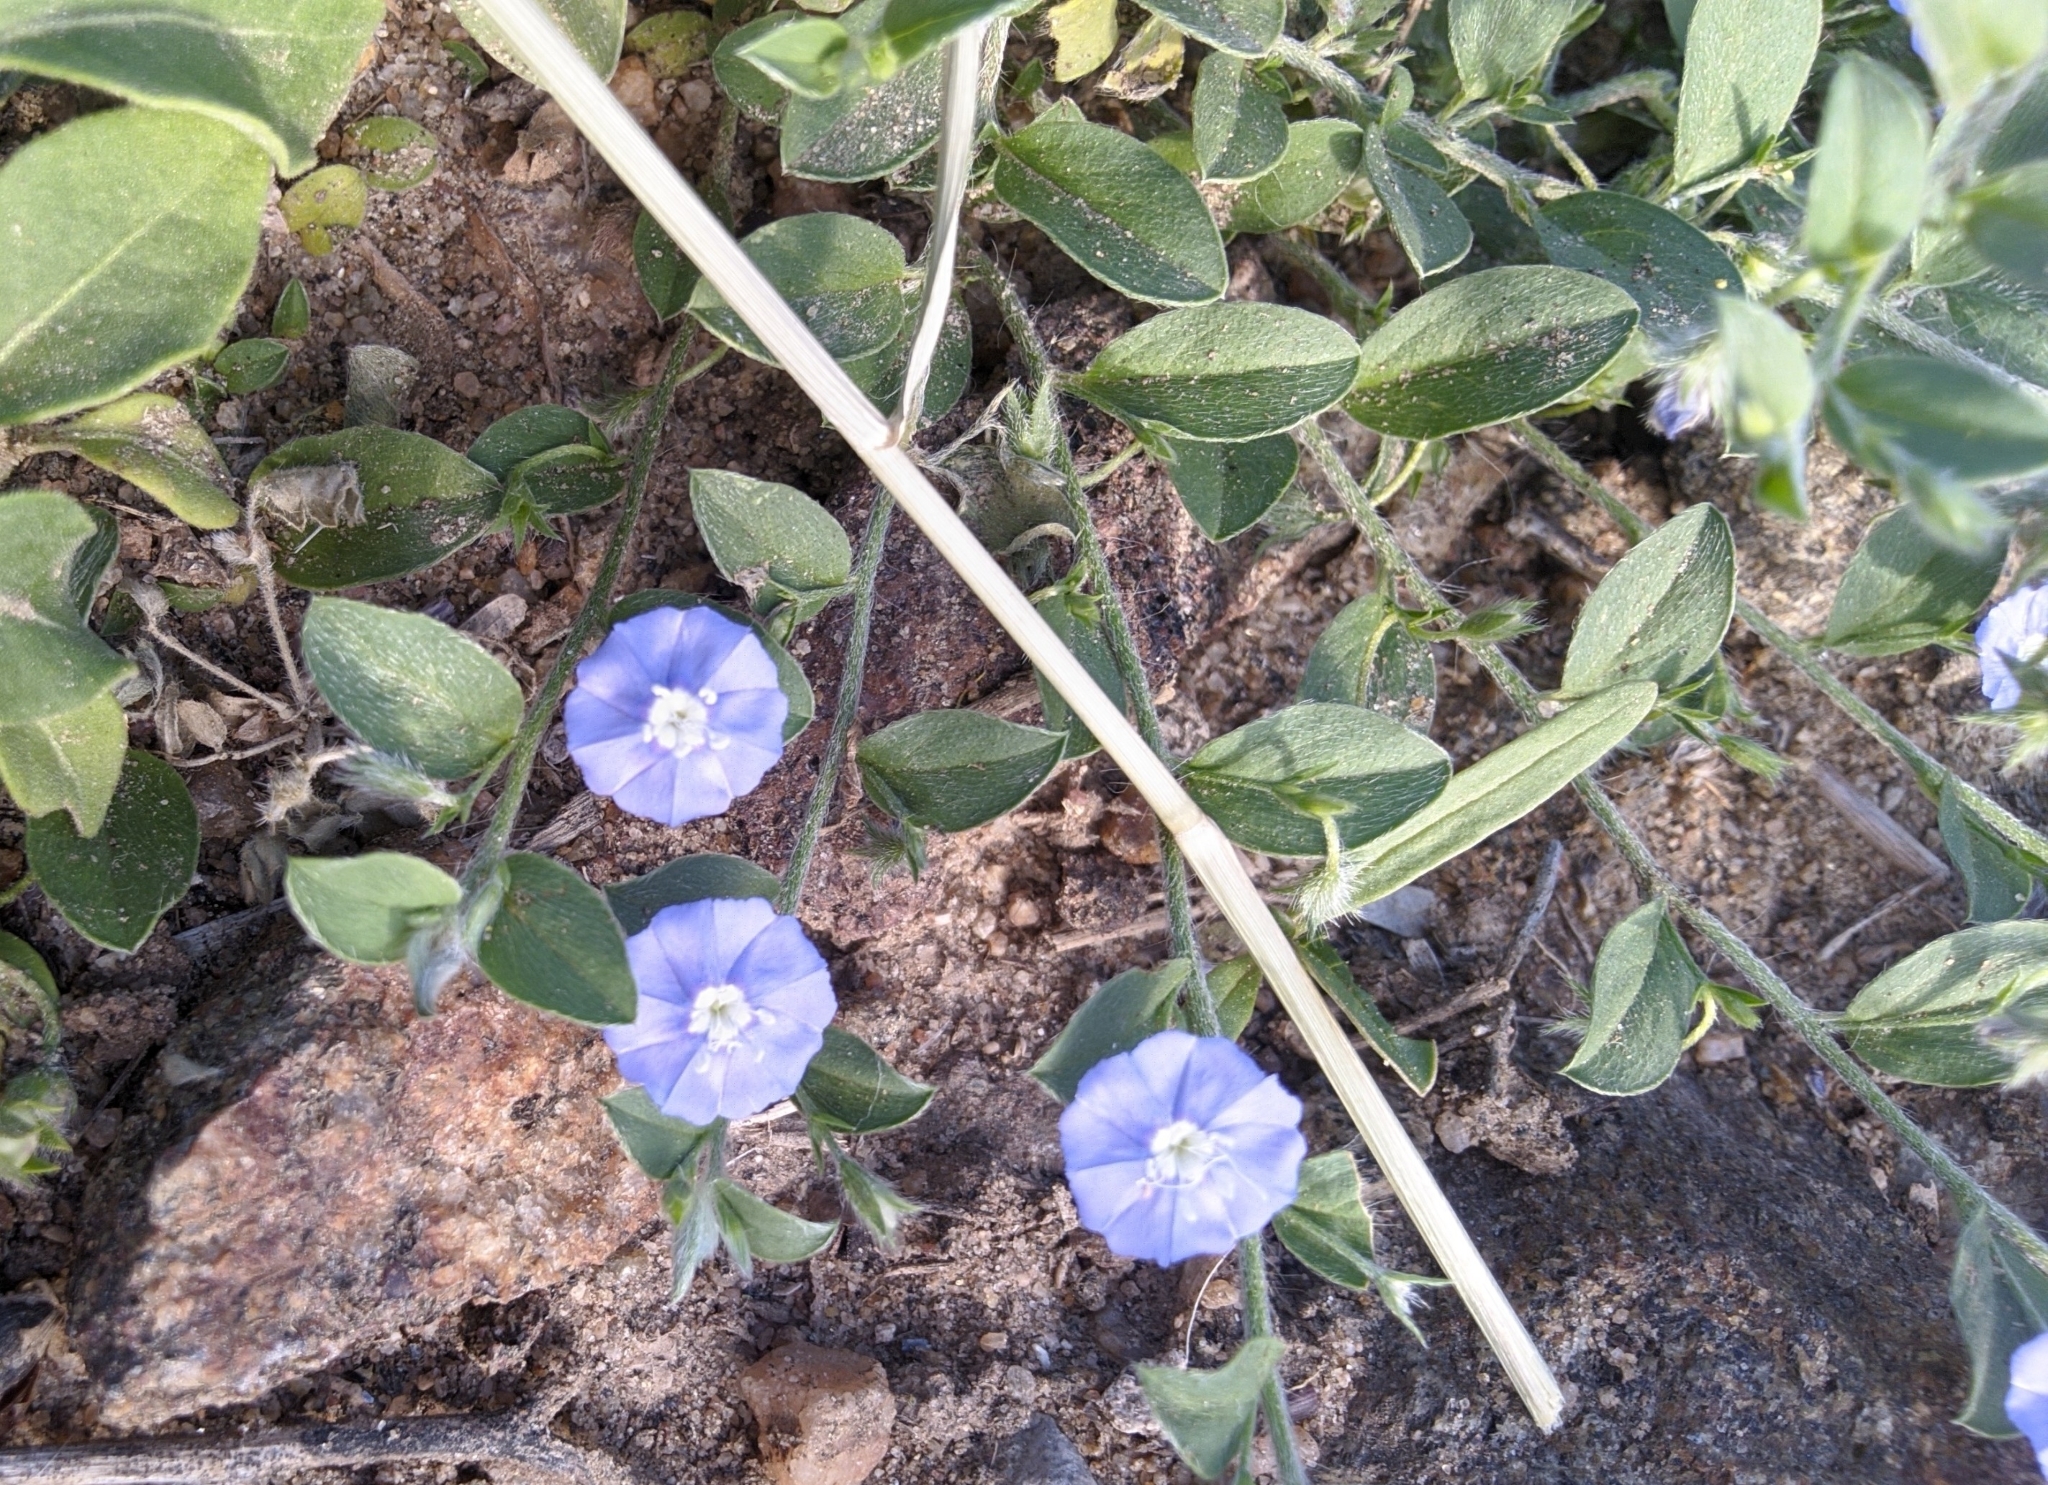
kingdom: Plantae
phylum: Tracheophyta
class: Magnoliopsida
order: Solanales
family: Convolvulaceae
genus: Evolvulus
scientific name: Evolvulus alsinoides
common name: Slender dwarf morning-glory
